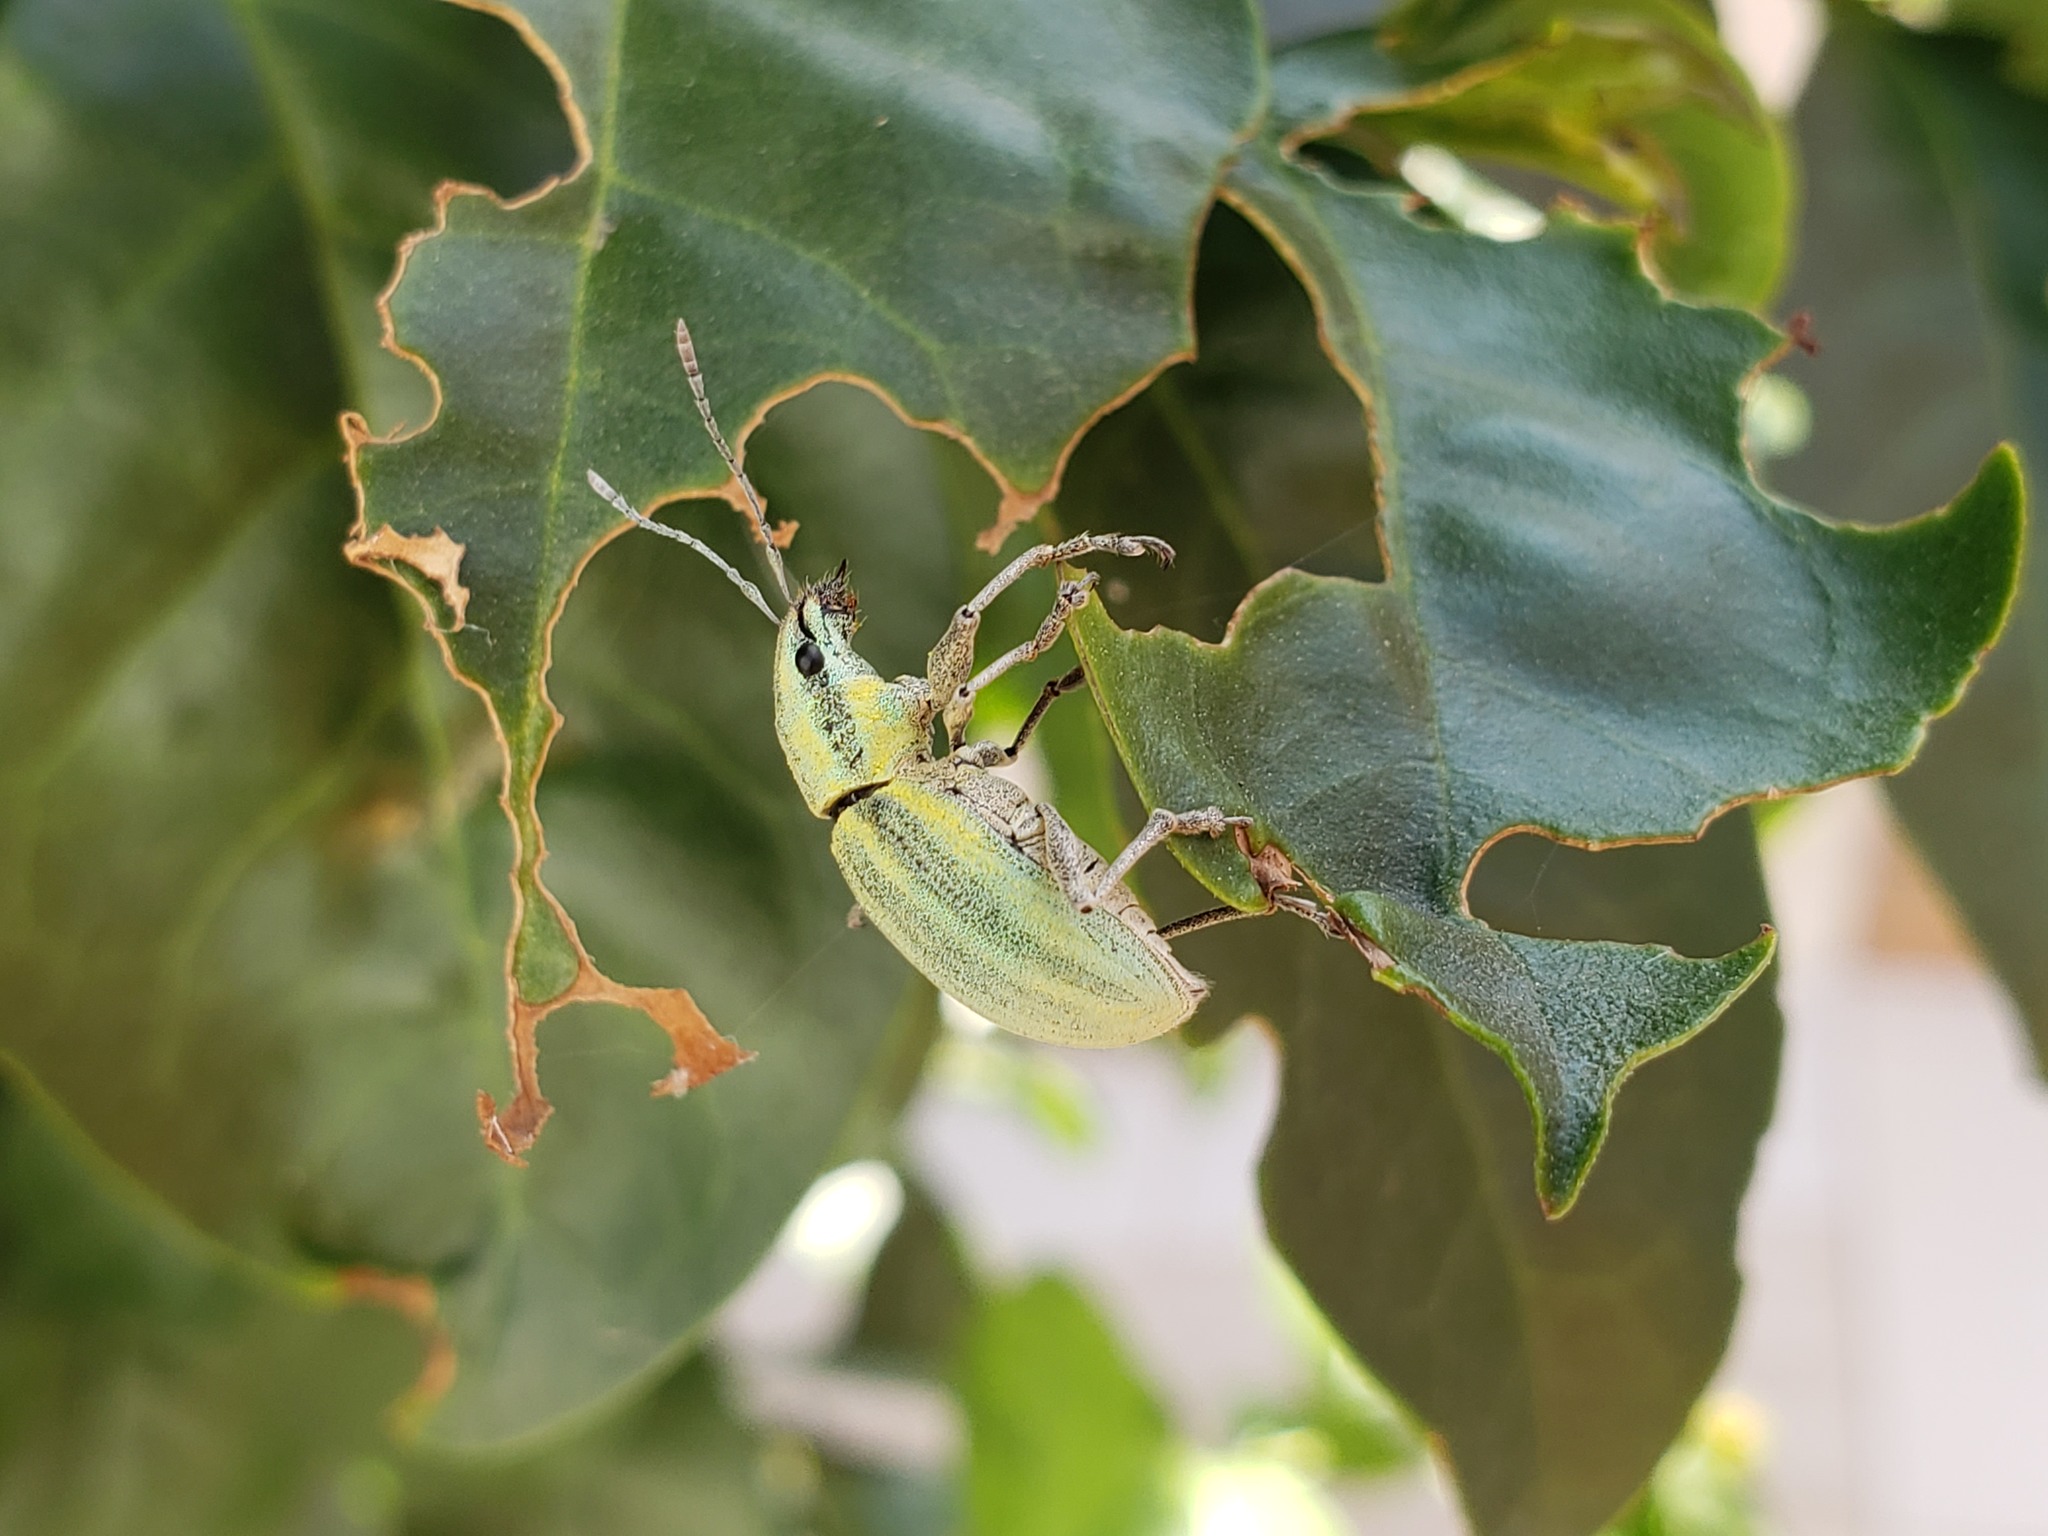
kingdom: Animalia
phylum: Arthropoda
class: Insecta
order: Coleoptera
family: Curculionidae
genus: Naupactus
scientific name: Naupactus virens
